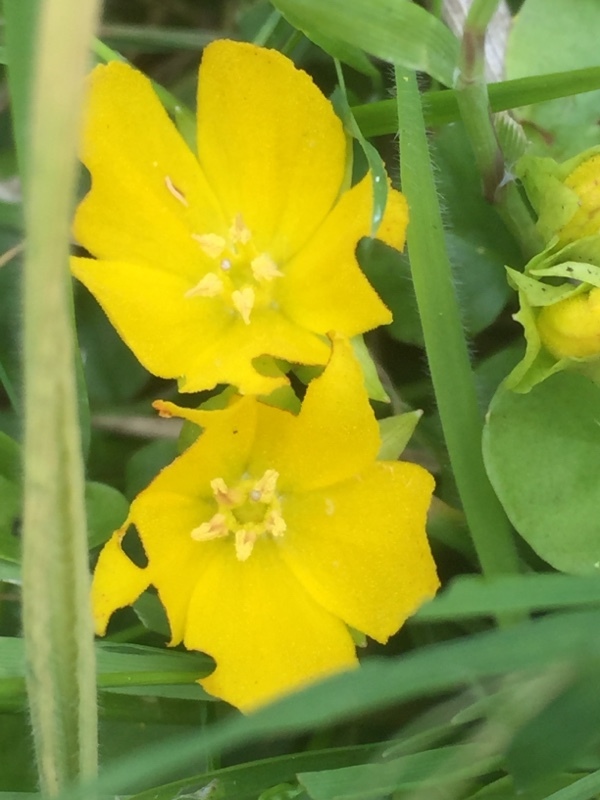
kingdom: Plantae
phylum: Tracheophyta
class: Magnoliopsida
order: Ericales
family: Primulaceae
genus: Lysimachia
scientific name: Lysimachia nummularia
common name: Moneywort
